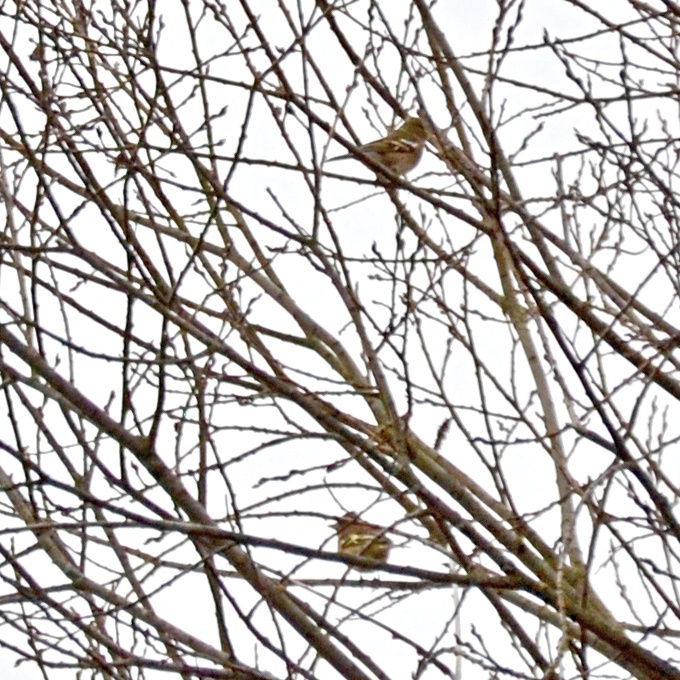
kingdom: Animalia
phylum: Chordata
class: Aves
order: Passeriformes
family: Fringillidae
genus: Fringilla
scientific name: Fringilla coelebs
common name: Common chaffinch
